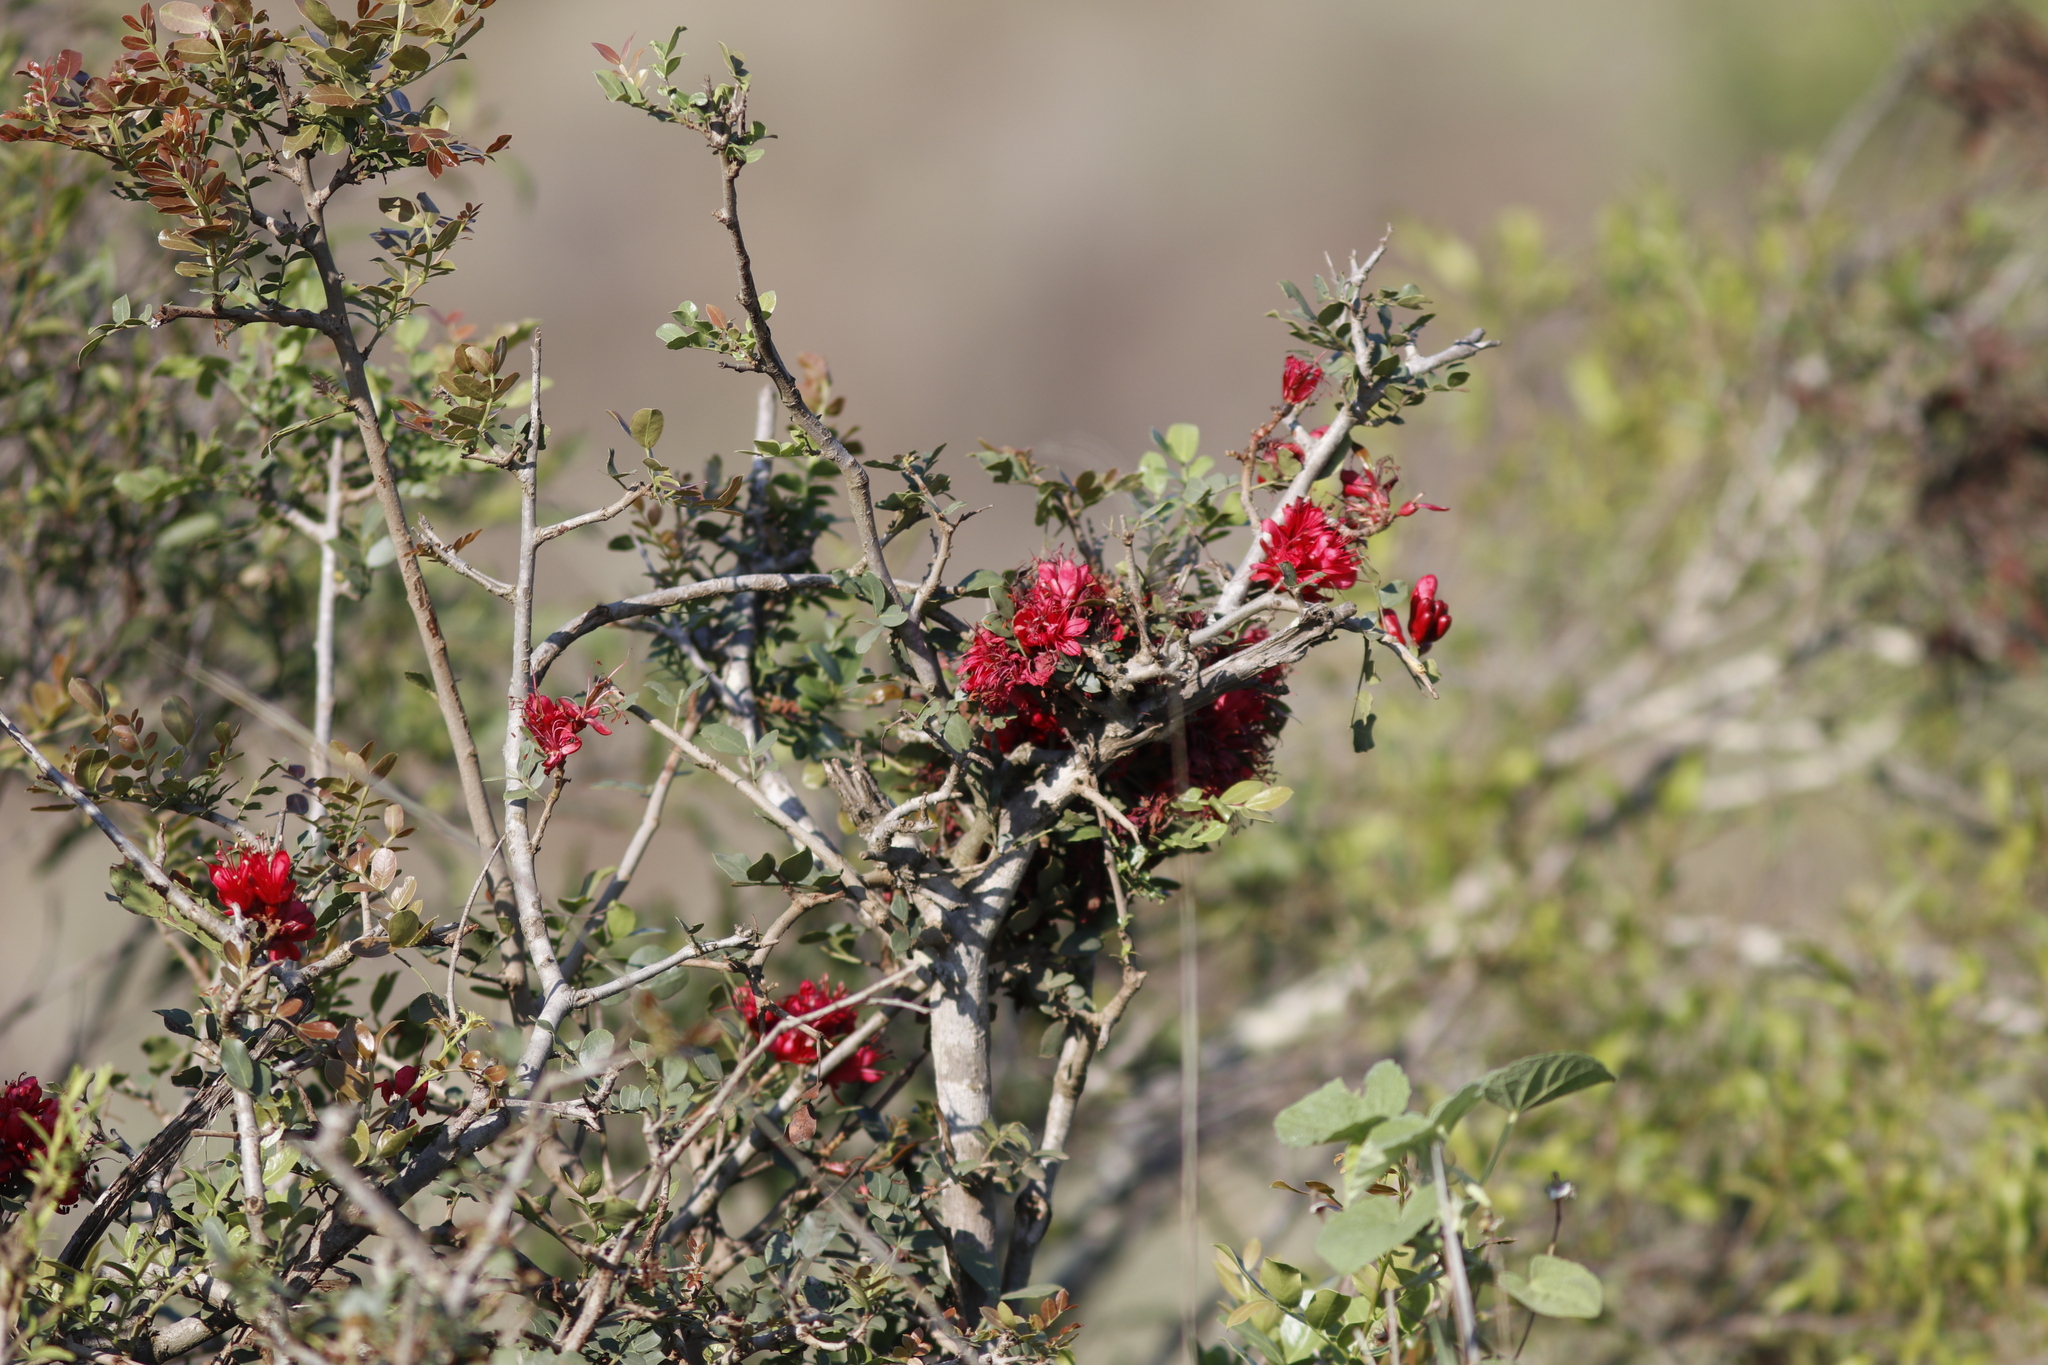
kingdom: Plantae
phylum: Tracheophyta
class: Magnoliopsida
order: Fabales
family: Fabaceae
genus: Schotia
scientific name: Schotia brachypetala
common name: Weeping boer-bean
